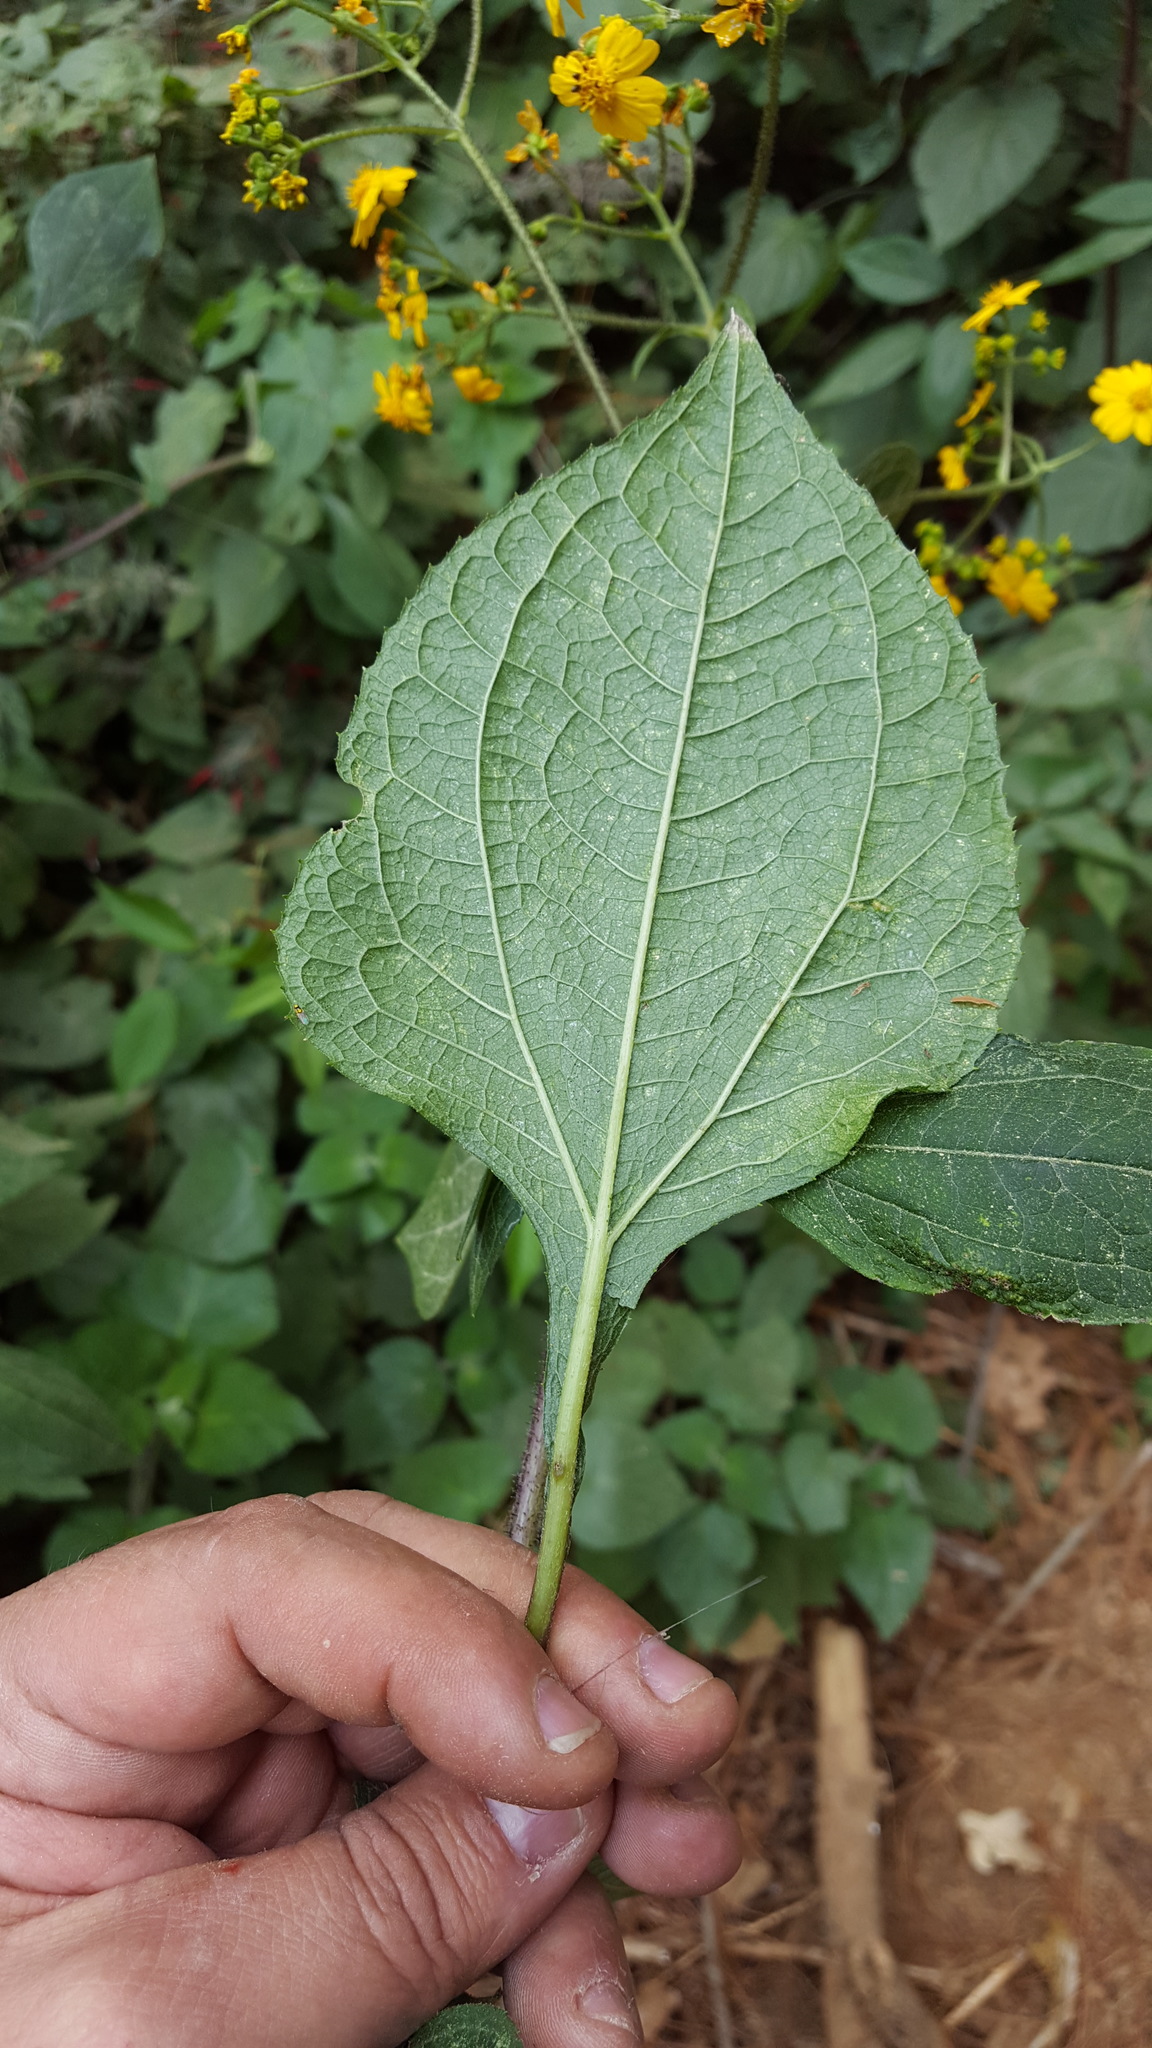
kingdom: Plantae
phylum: Tracheophyta
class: Magnoliopsida
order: Asterales
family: Asteraceae
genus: Trigonospermum
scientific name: Trigonospermum melampodioides
